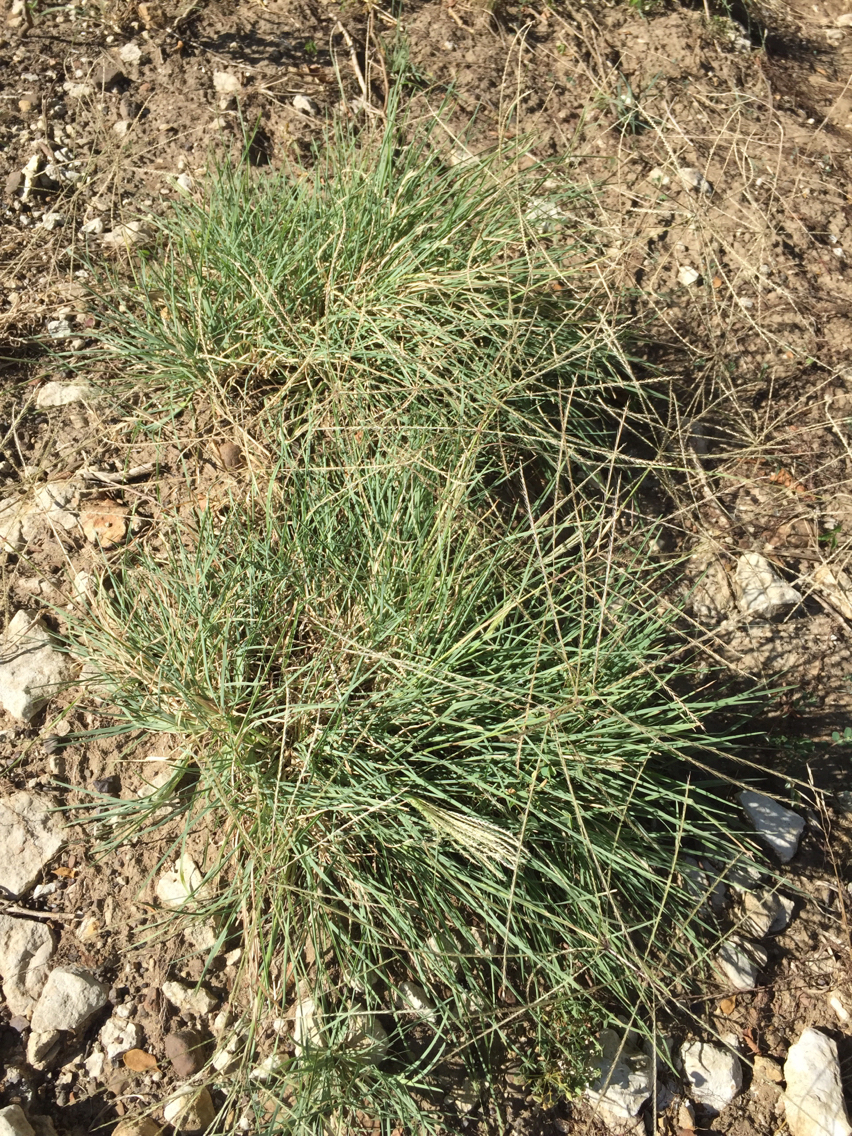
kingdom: Plantae
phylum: Tracheophyta
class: Liliopsida
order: Poales
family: Poaceae
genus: Chloris
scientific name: Chloris verticillata
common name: Tumble windmill grass
